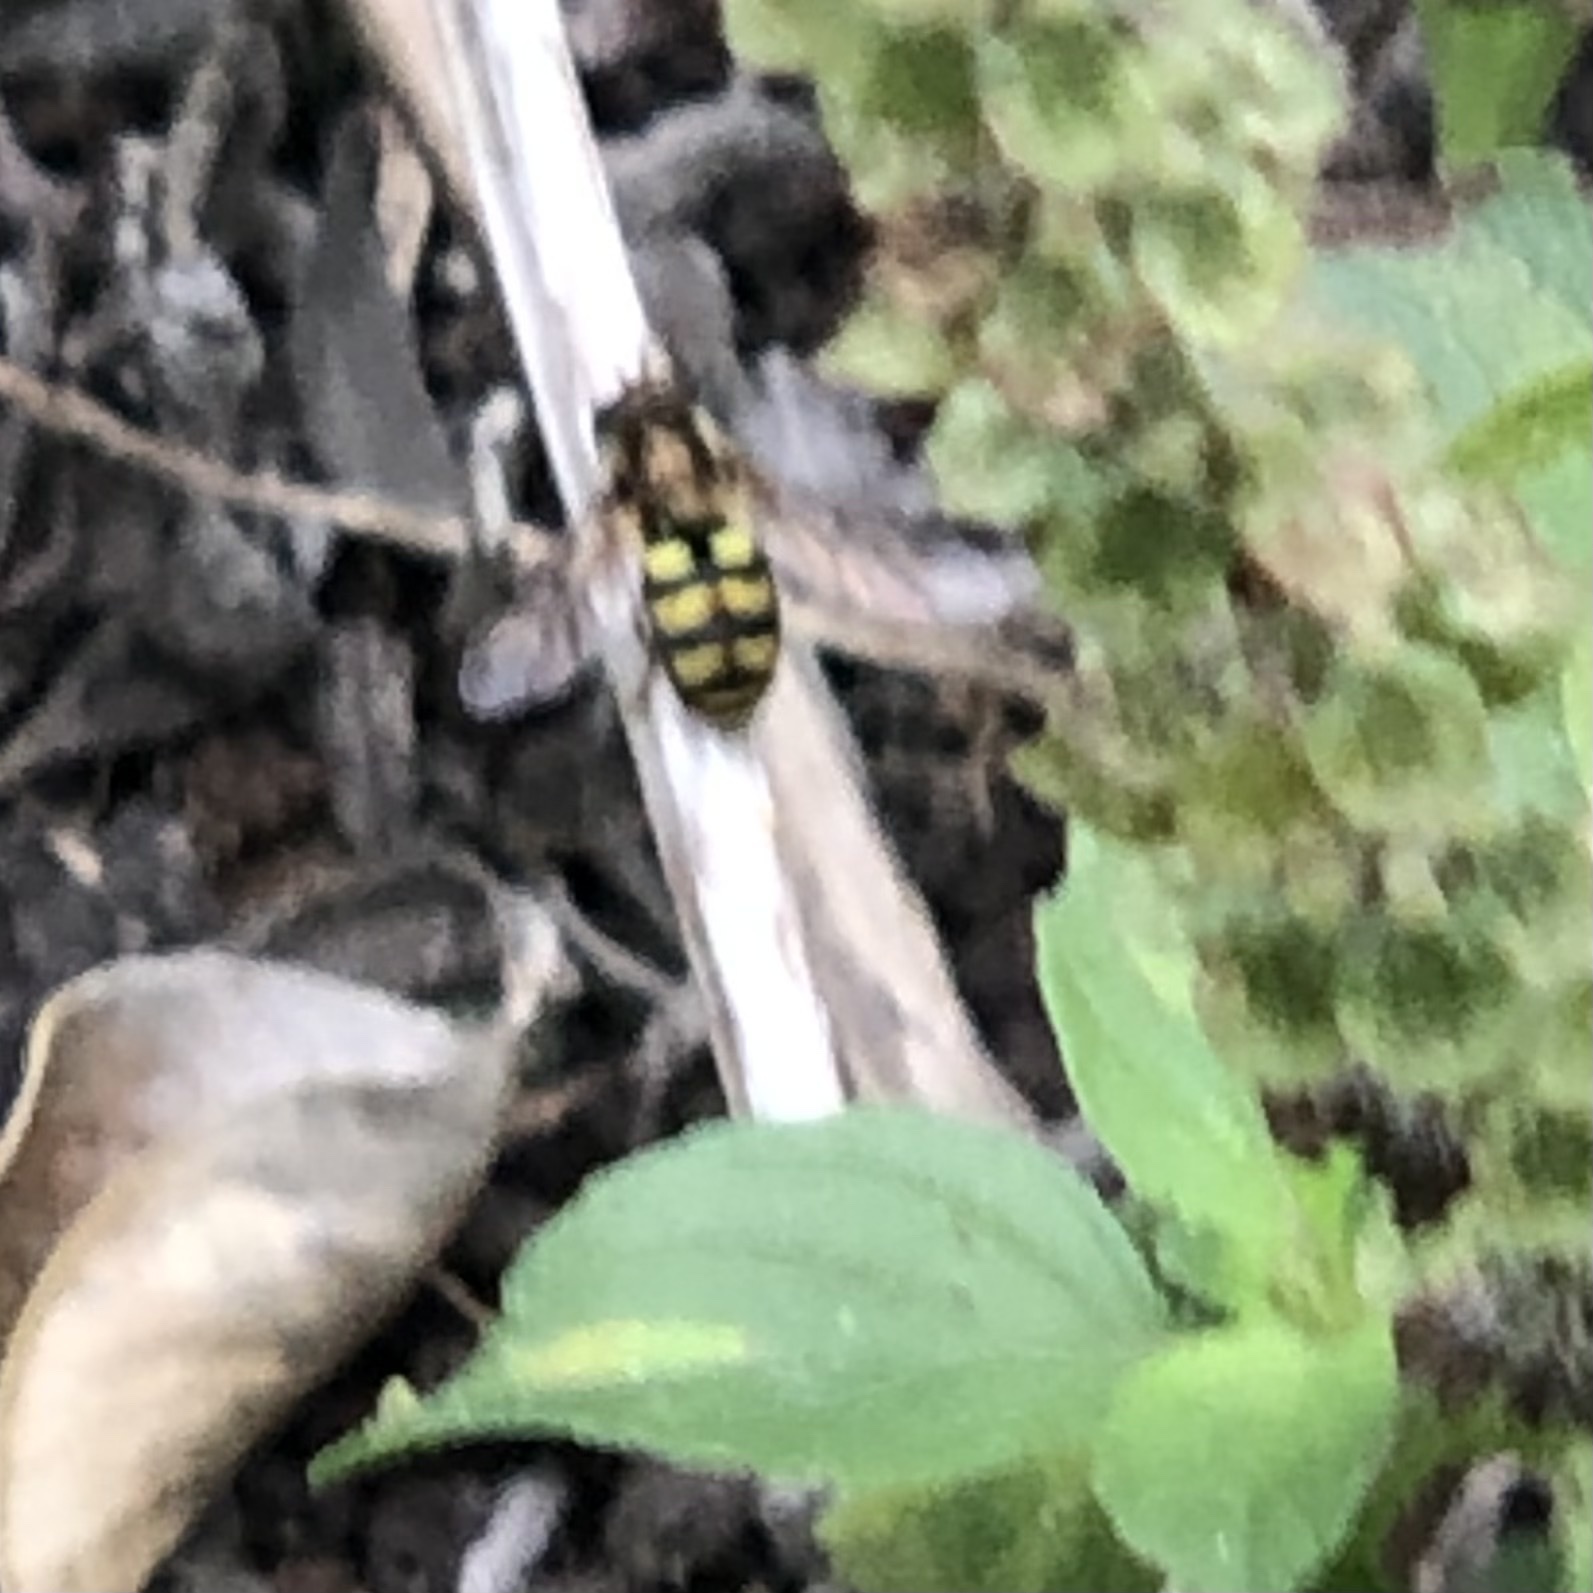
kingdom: Animalia
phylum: Arthropoda
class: Insecta
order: Diptera
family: Syrphidae
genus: Eupeodes
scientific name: Eupeodes fumipennis
